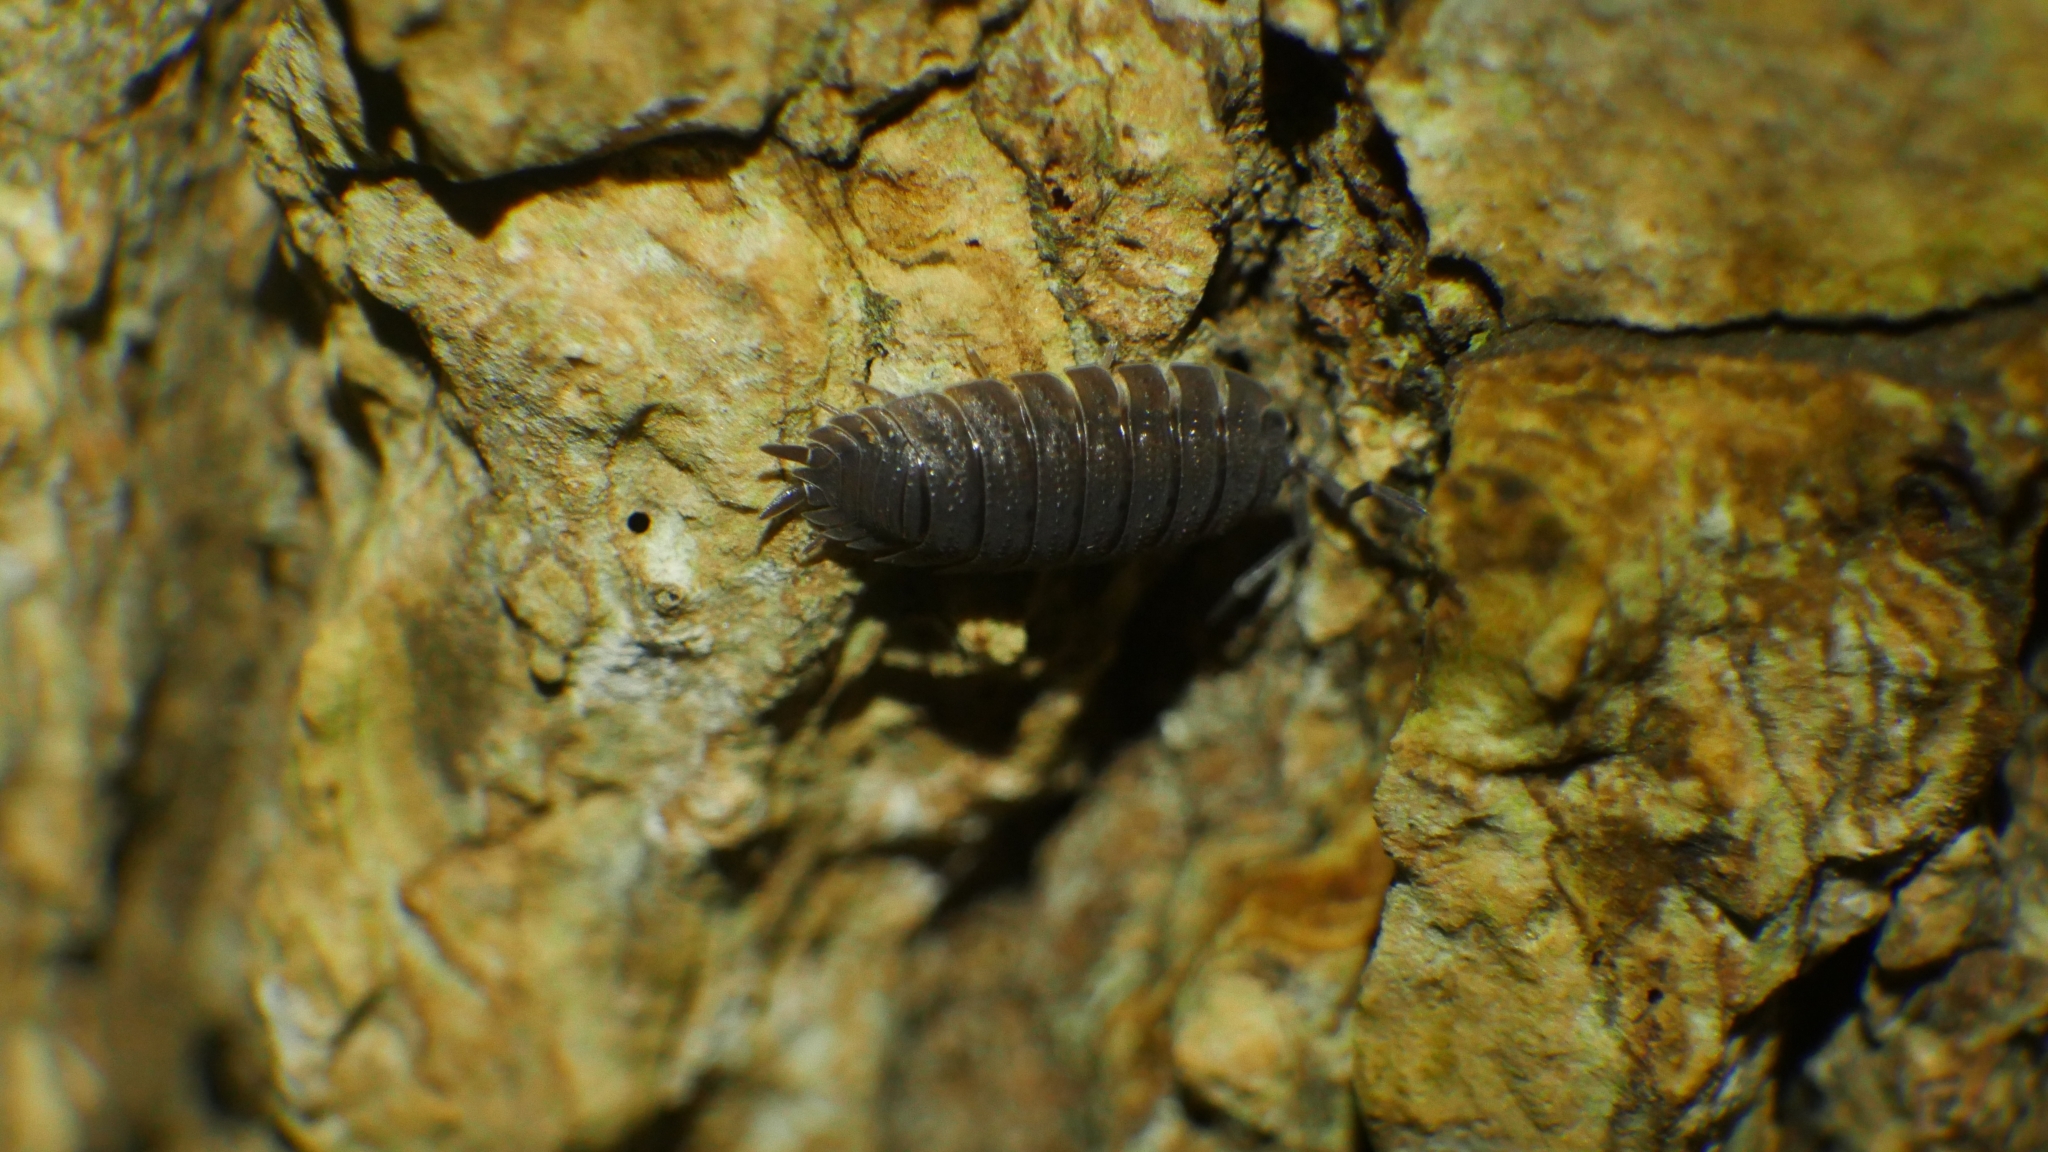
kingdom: Animalia
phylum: Arthropoda
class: Malacostraca
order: Isopoda
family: Porcellionidae
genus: Porcellio
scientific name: Porcellio scaber
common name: Common rough woodlouse
